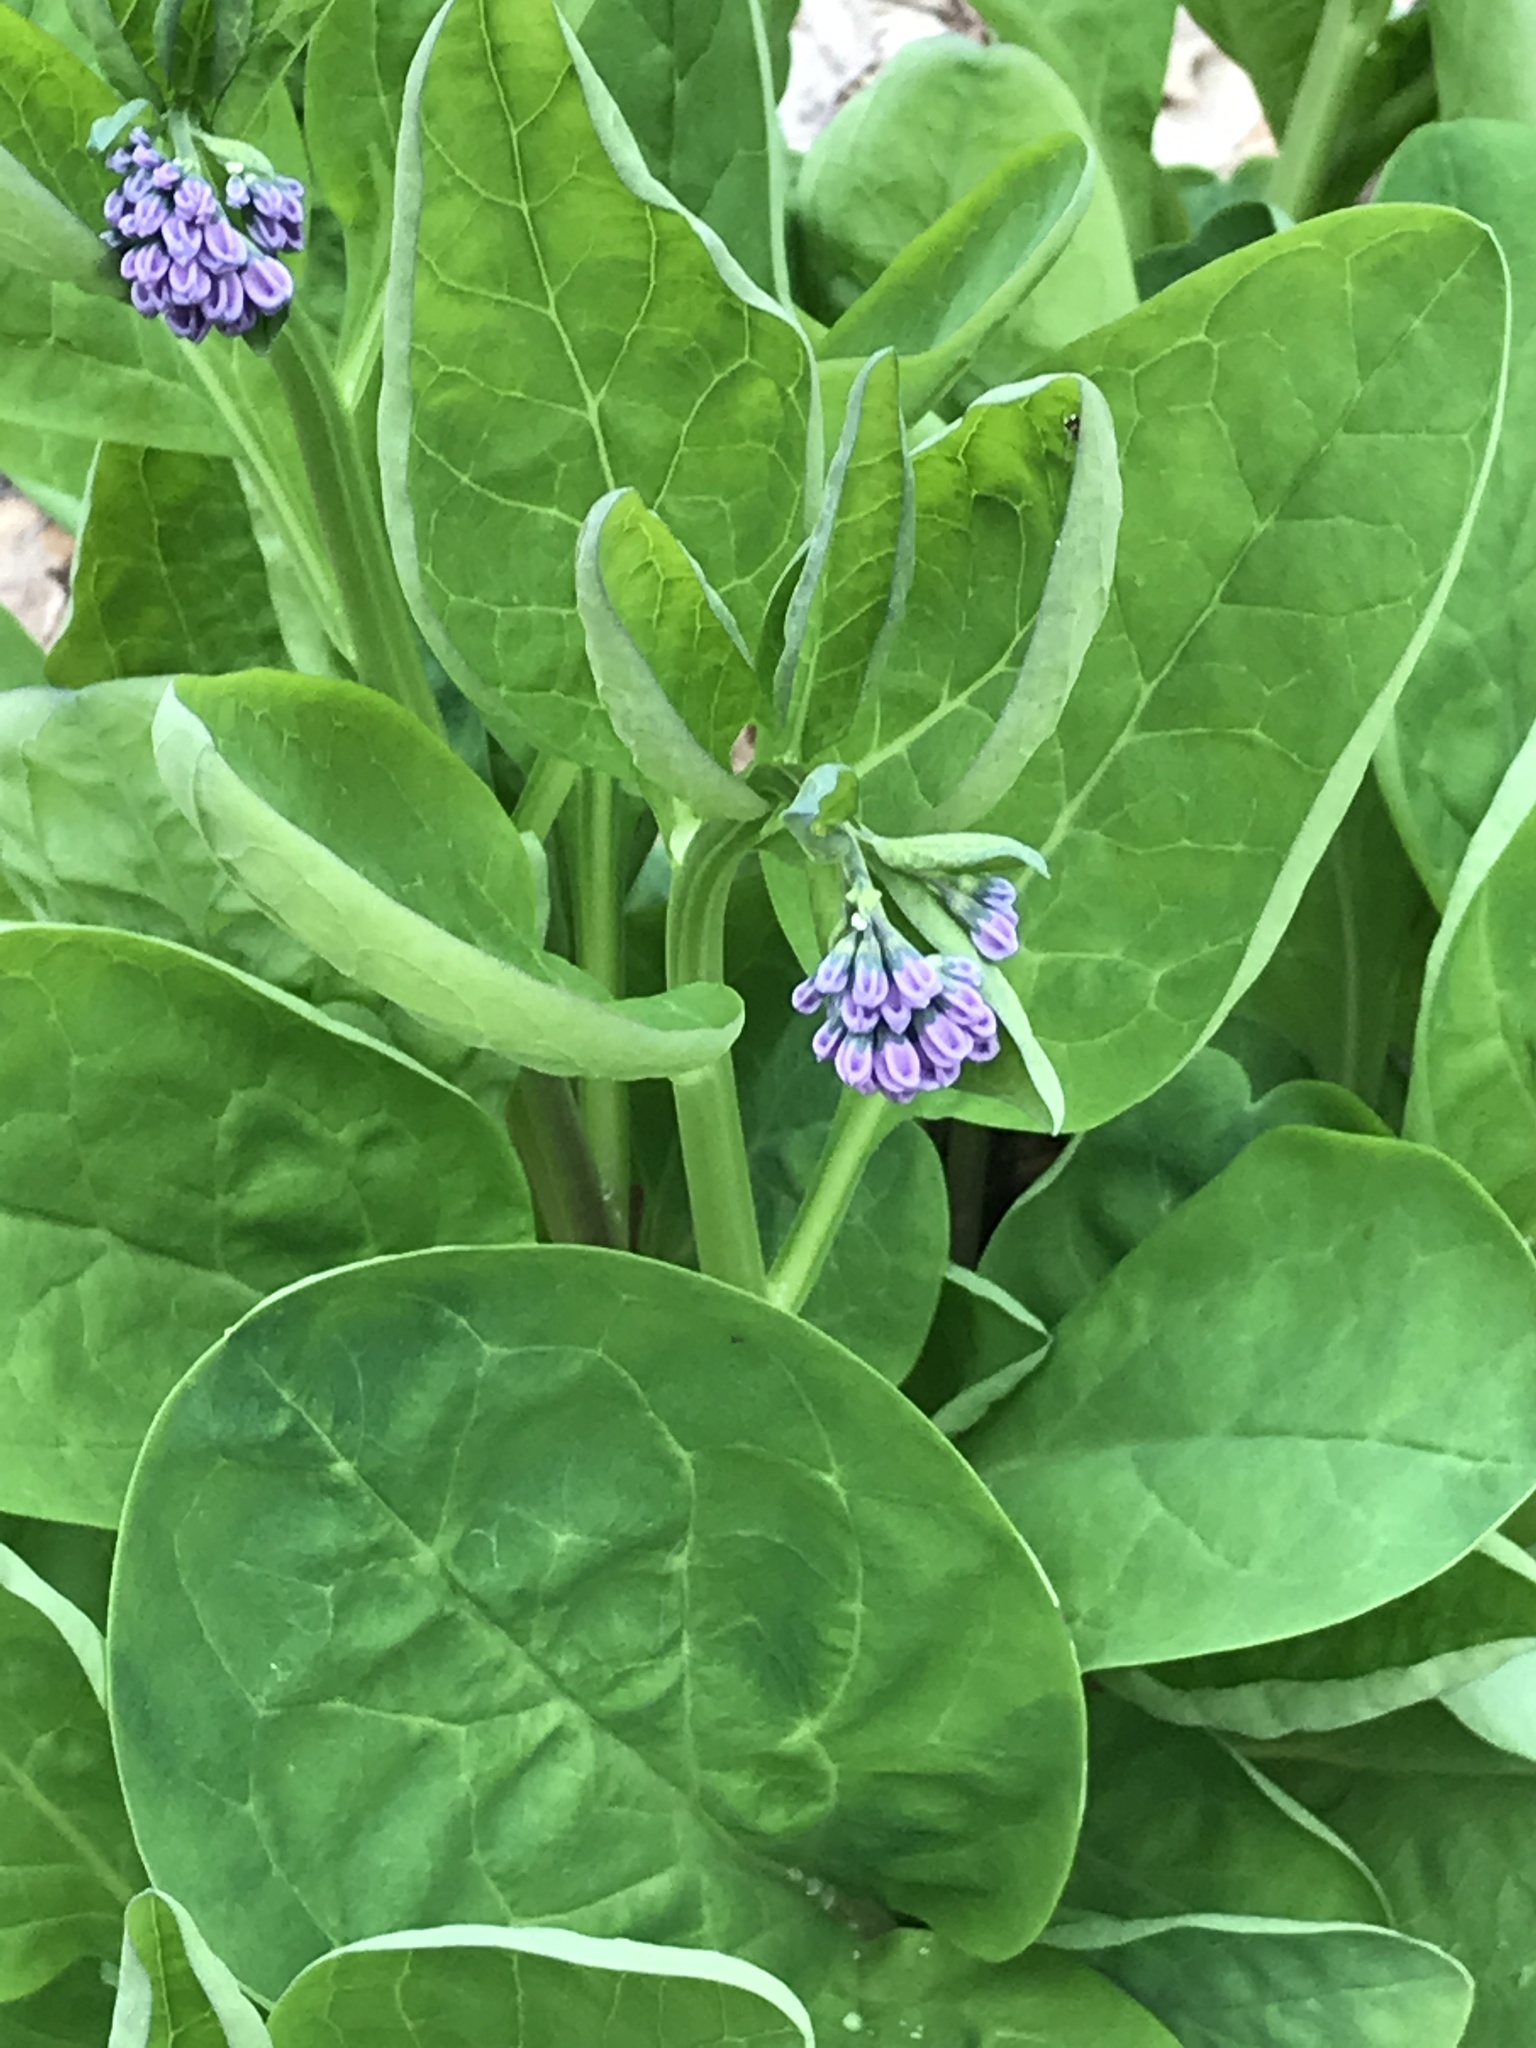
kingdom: Plantae
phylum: Tracheophyta
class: Magnoliopsida
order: Boraginales
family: Boraginaceae
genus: Mertensia
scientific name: Mertensia virginica
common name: Virginia bluebells
